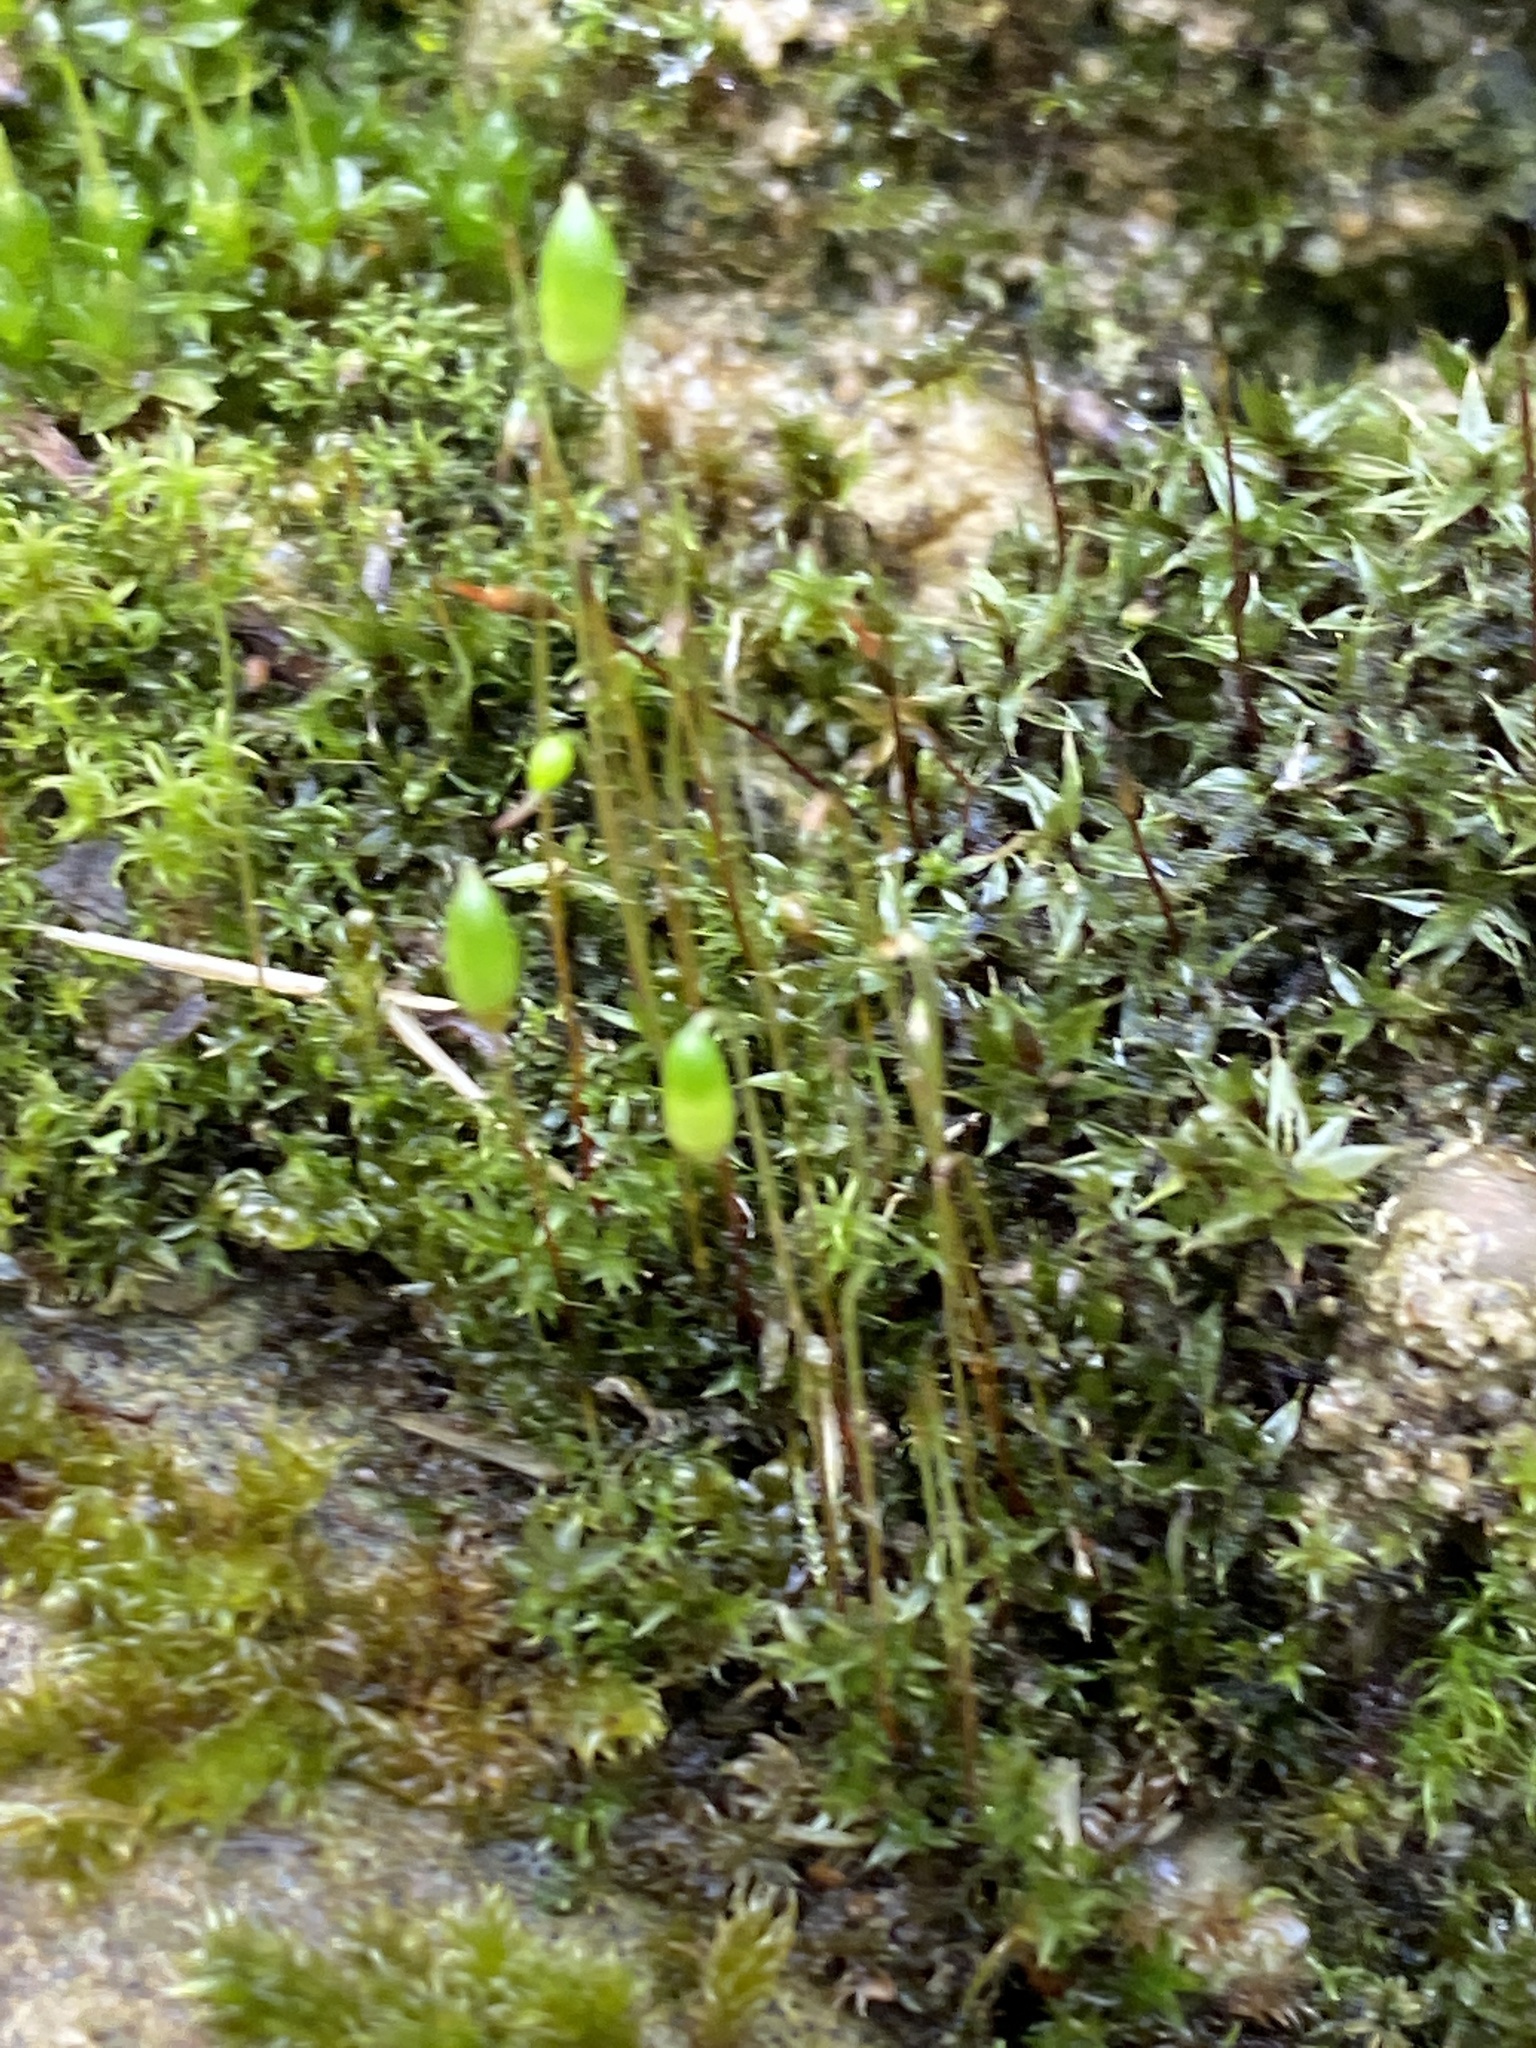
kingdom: Plantae
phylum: Bryophyta
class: Bryopsida
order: Funariales
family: Funariaceae
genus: Funaria
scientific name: Funaria hygrometrica
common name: Common cord moss
